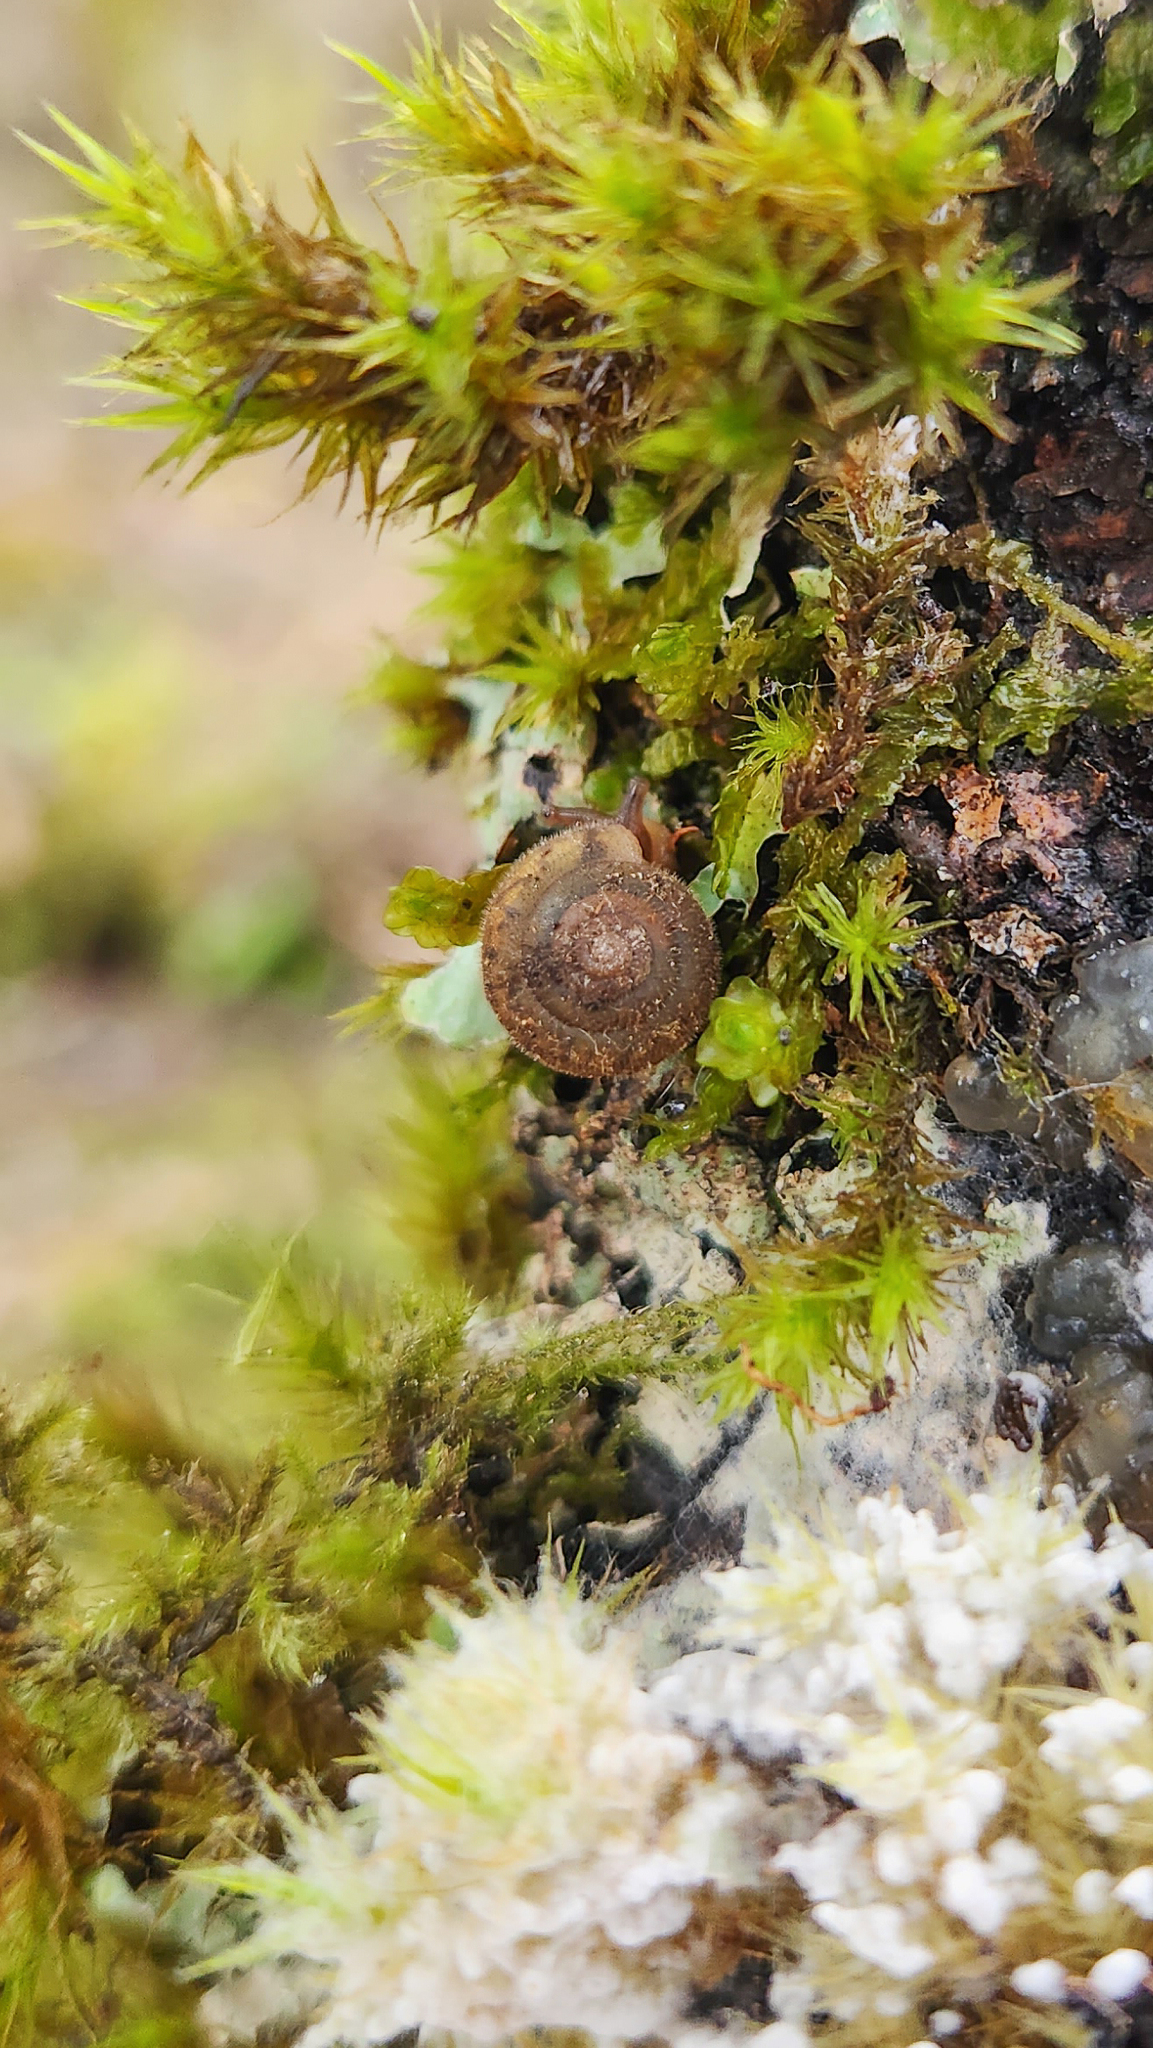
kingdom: Animalia
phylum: Mollusca
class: Gastropoda
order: Stylommatophora
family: Polygyridae
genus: Vespericola
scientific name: Vespericola columbianus
